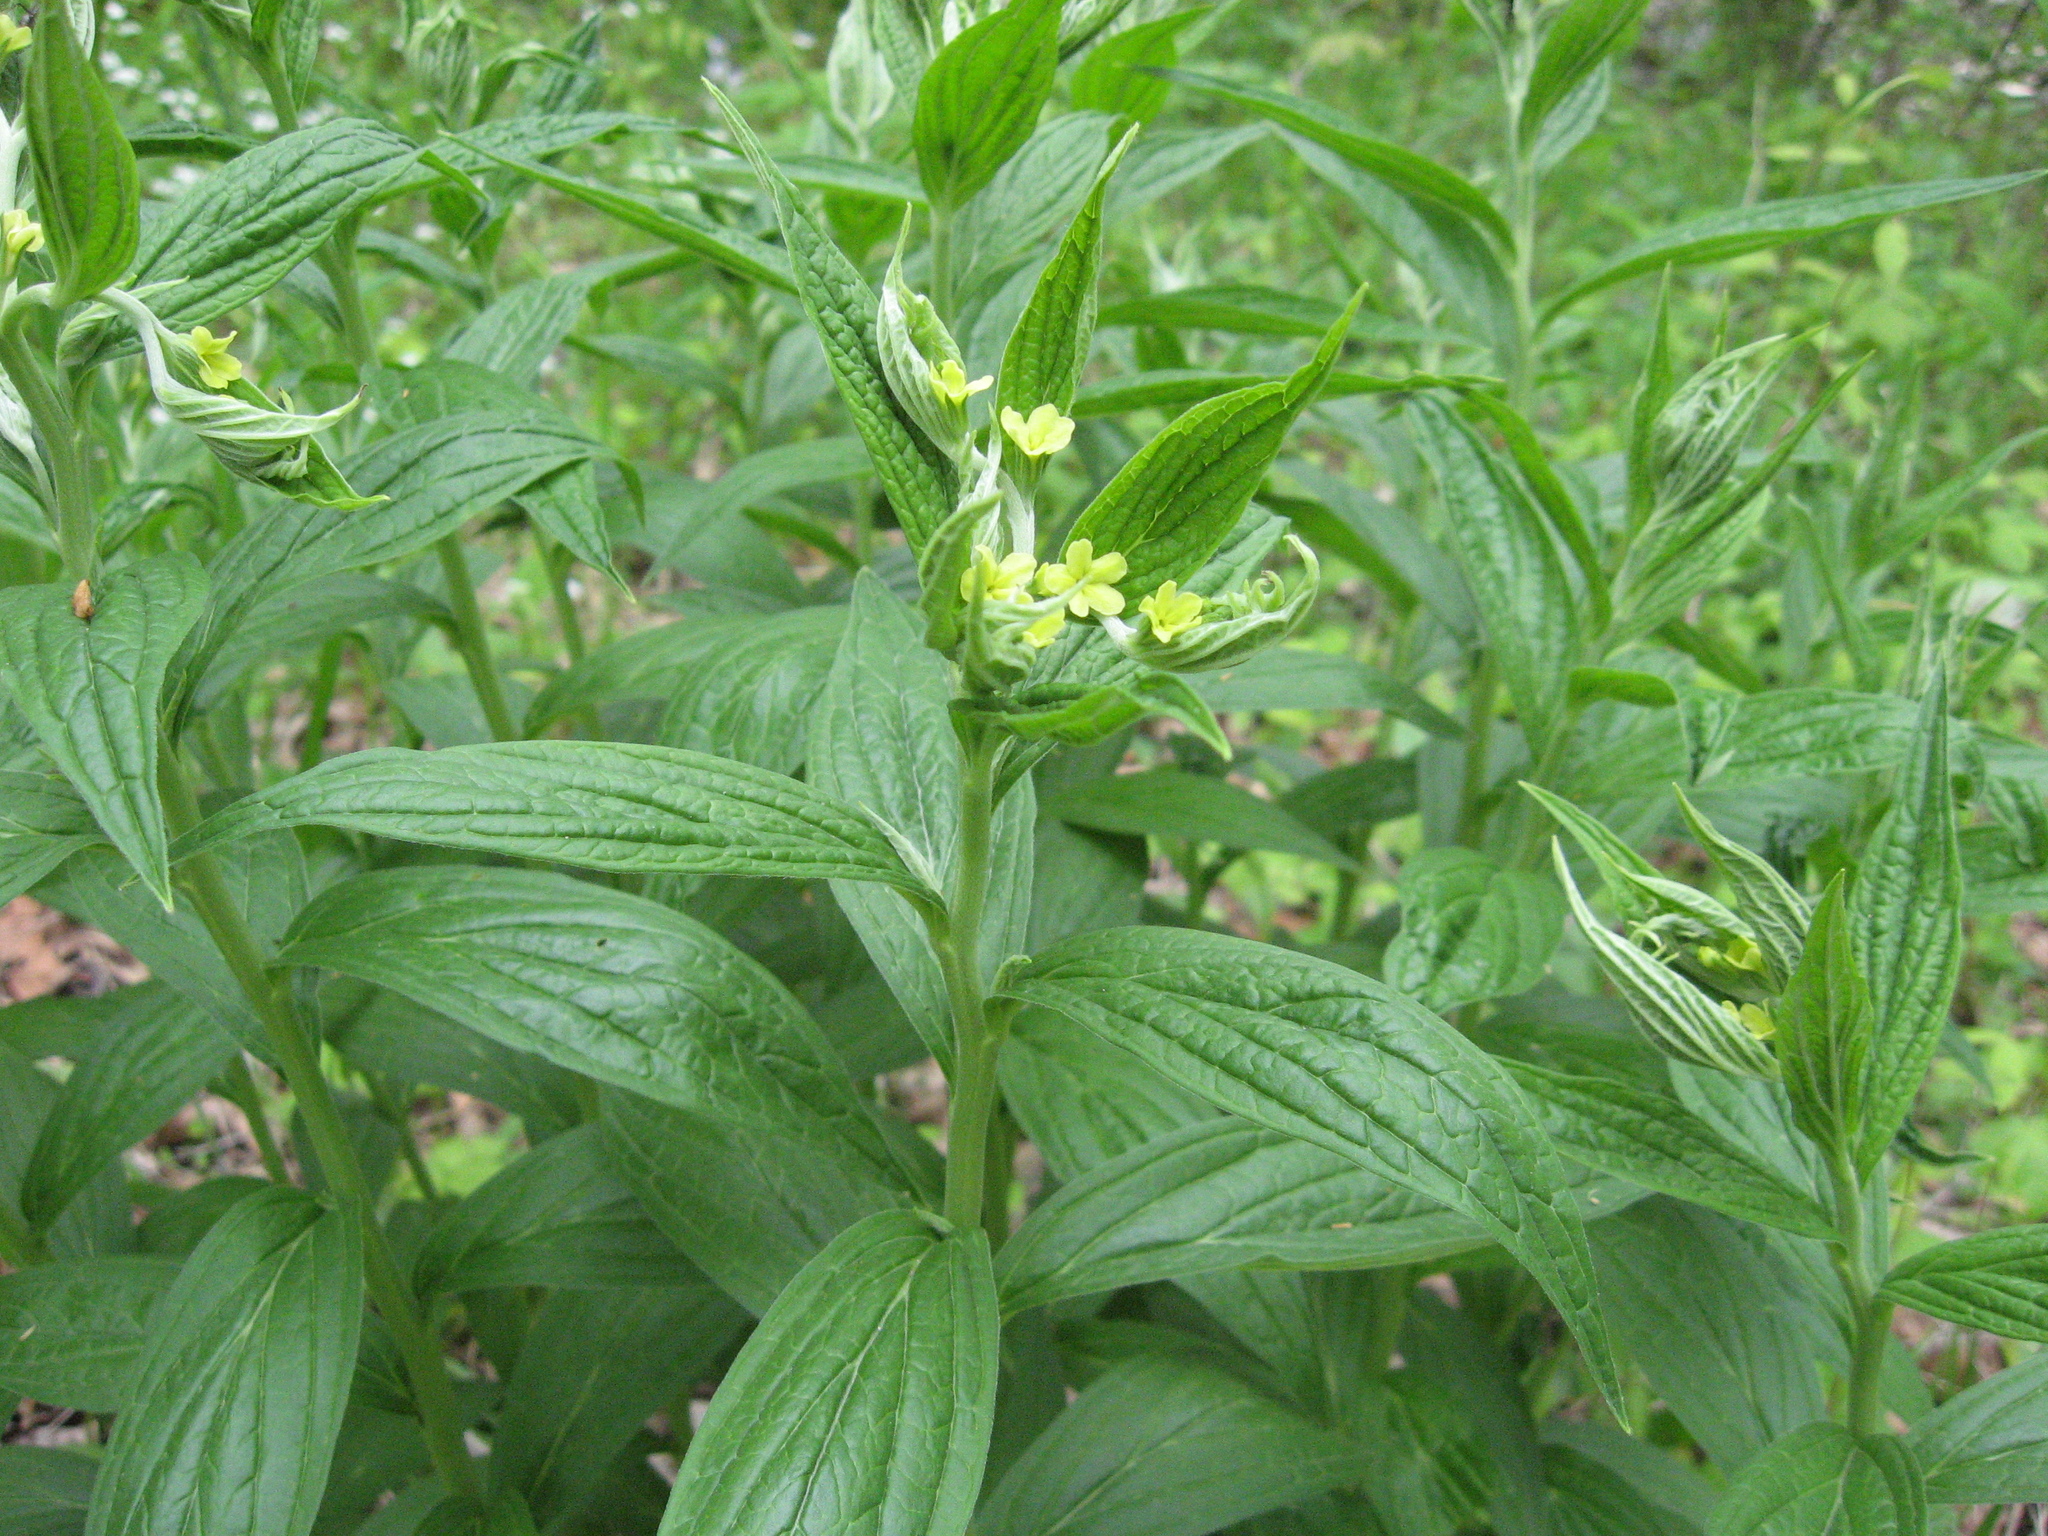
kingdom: Plantae
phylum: Tracheophyta
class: Magnoliopsida
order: Boraginales
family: Boraginaceae
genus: Lithospermum
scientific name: Lithospermum latifolium
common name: American gromwell
